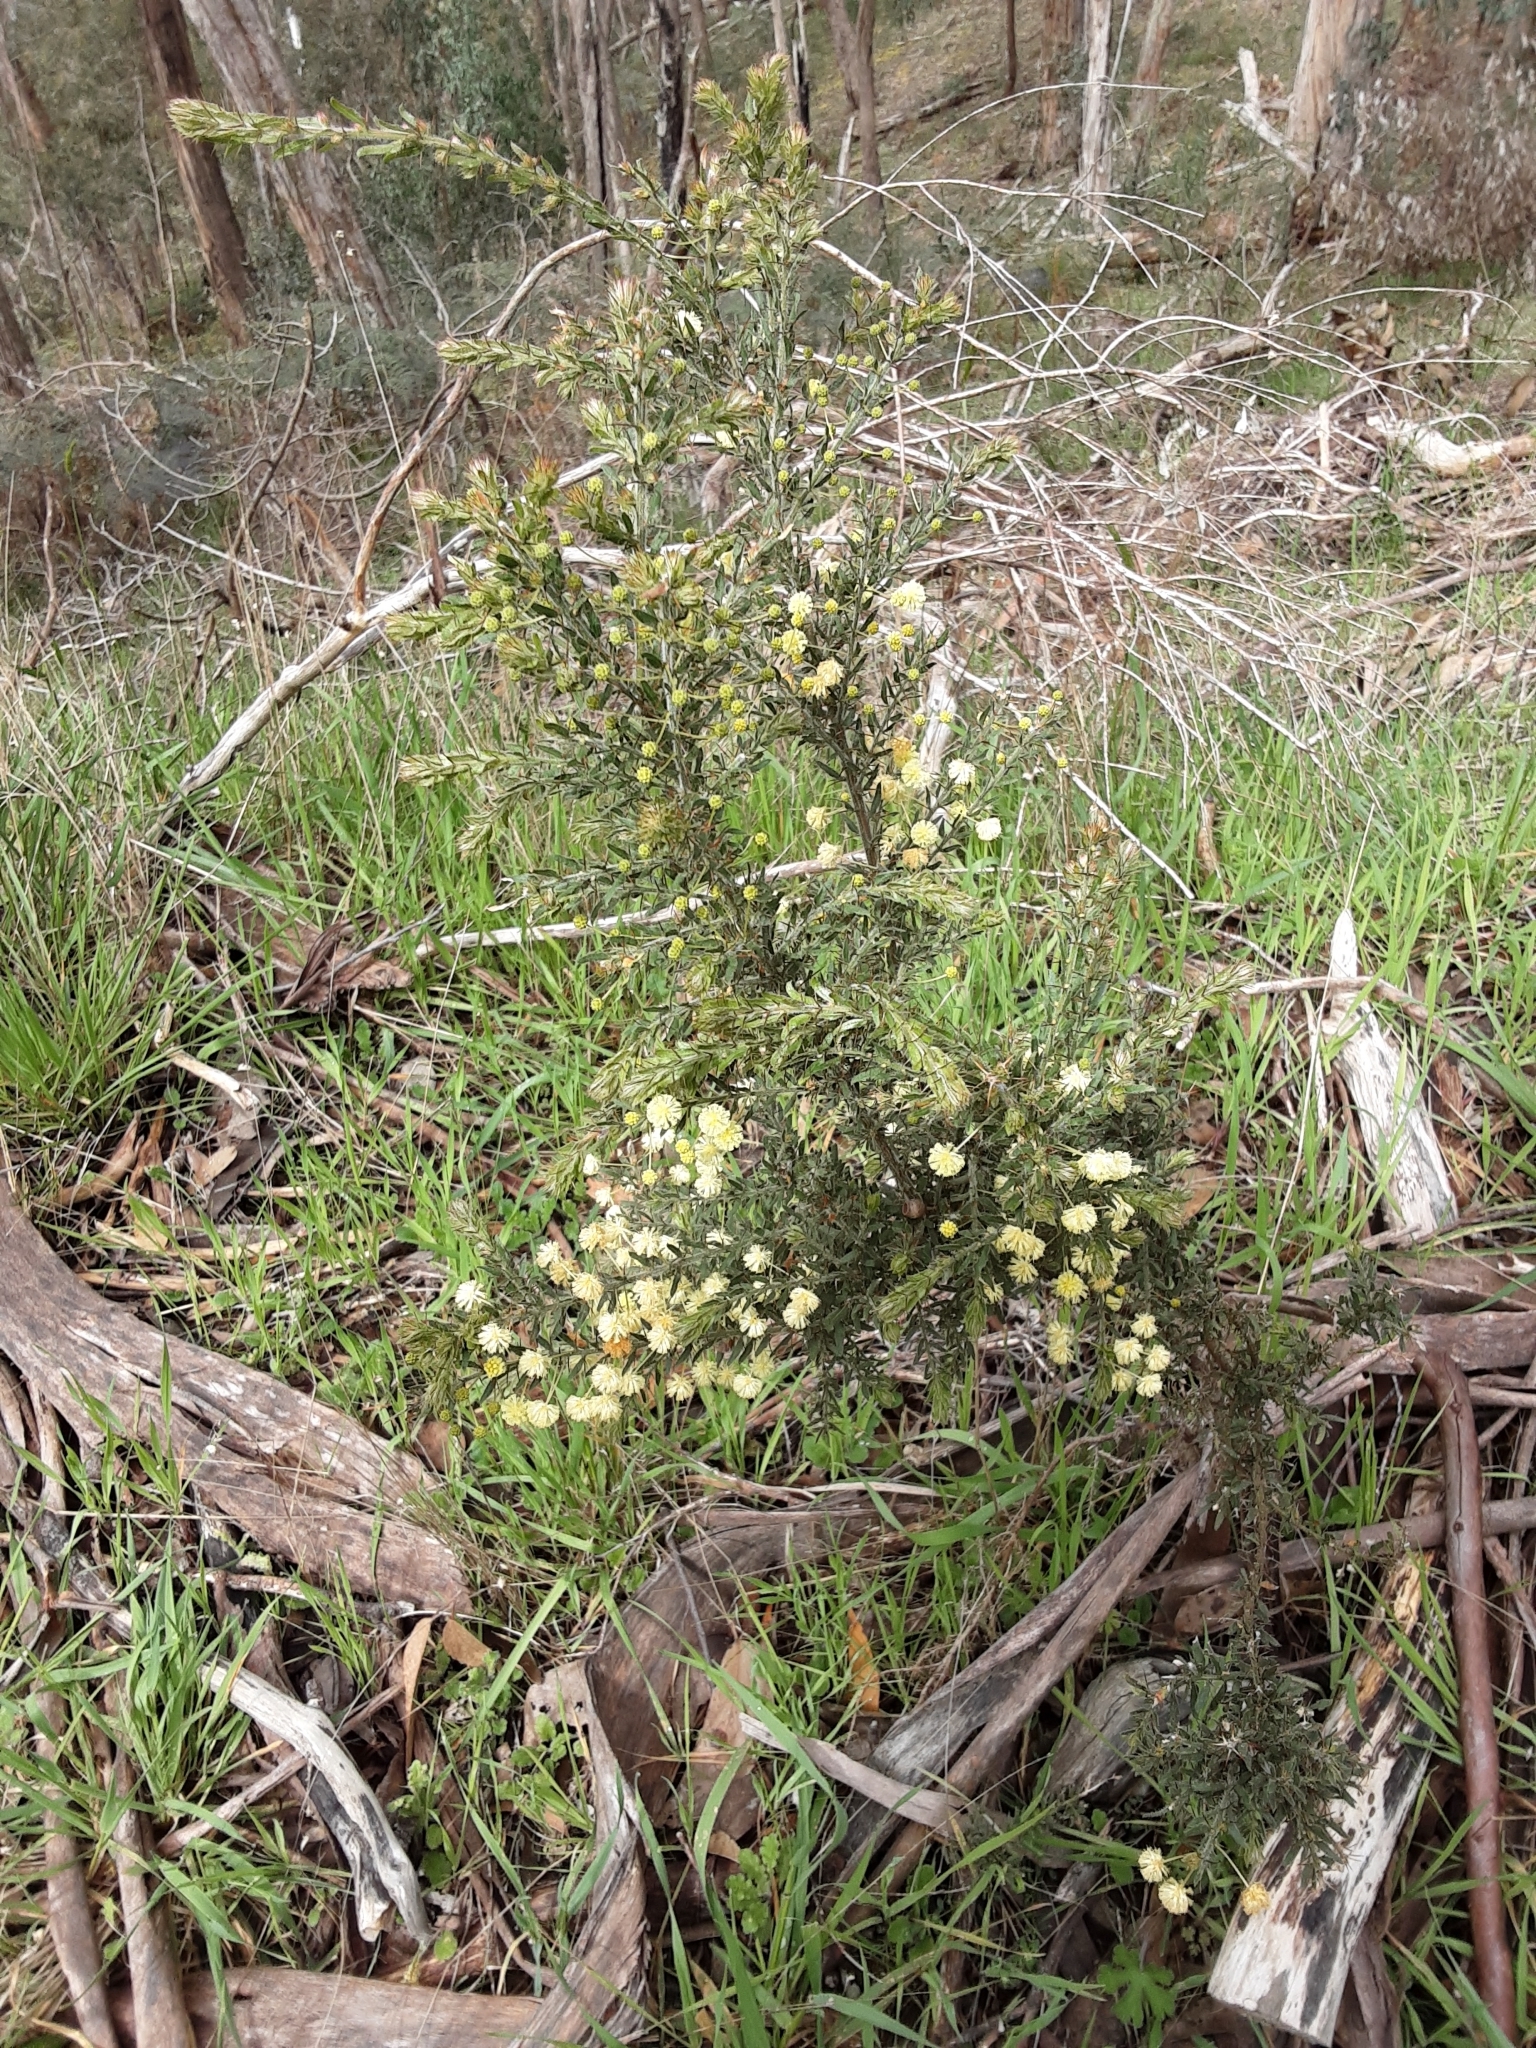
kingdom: Plantae
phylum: Tracheophyta
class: Magnoliopsida
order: Fabales
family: Fabaceae
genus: Acacia
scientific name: Acacia paradoxa
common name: Paradox acacia
